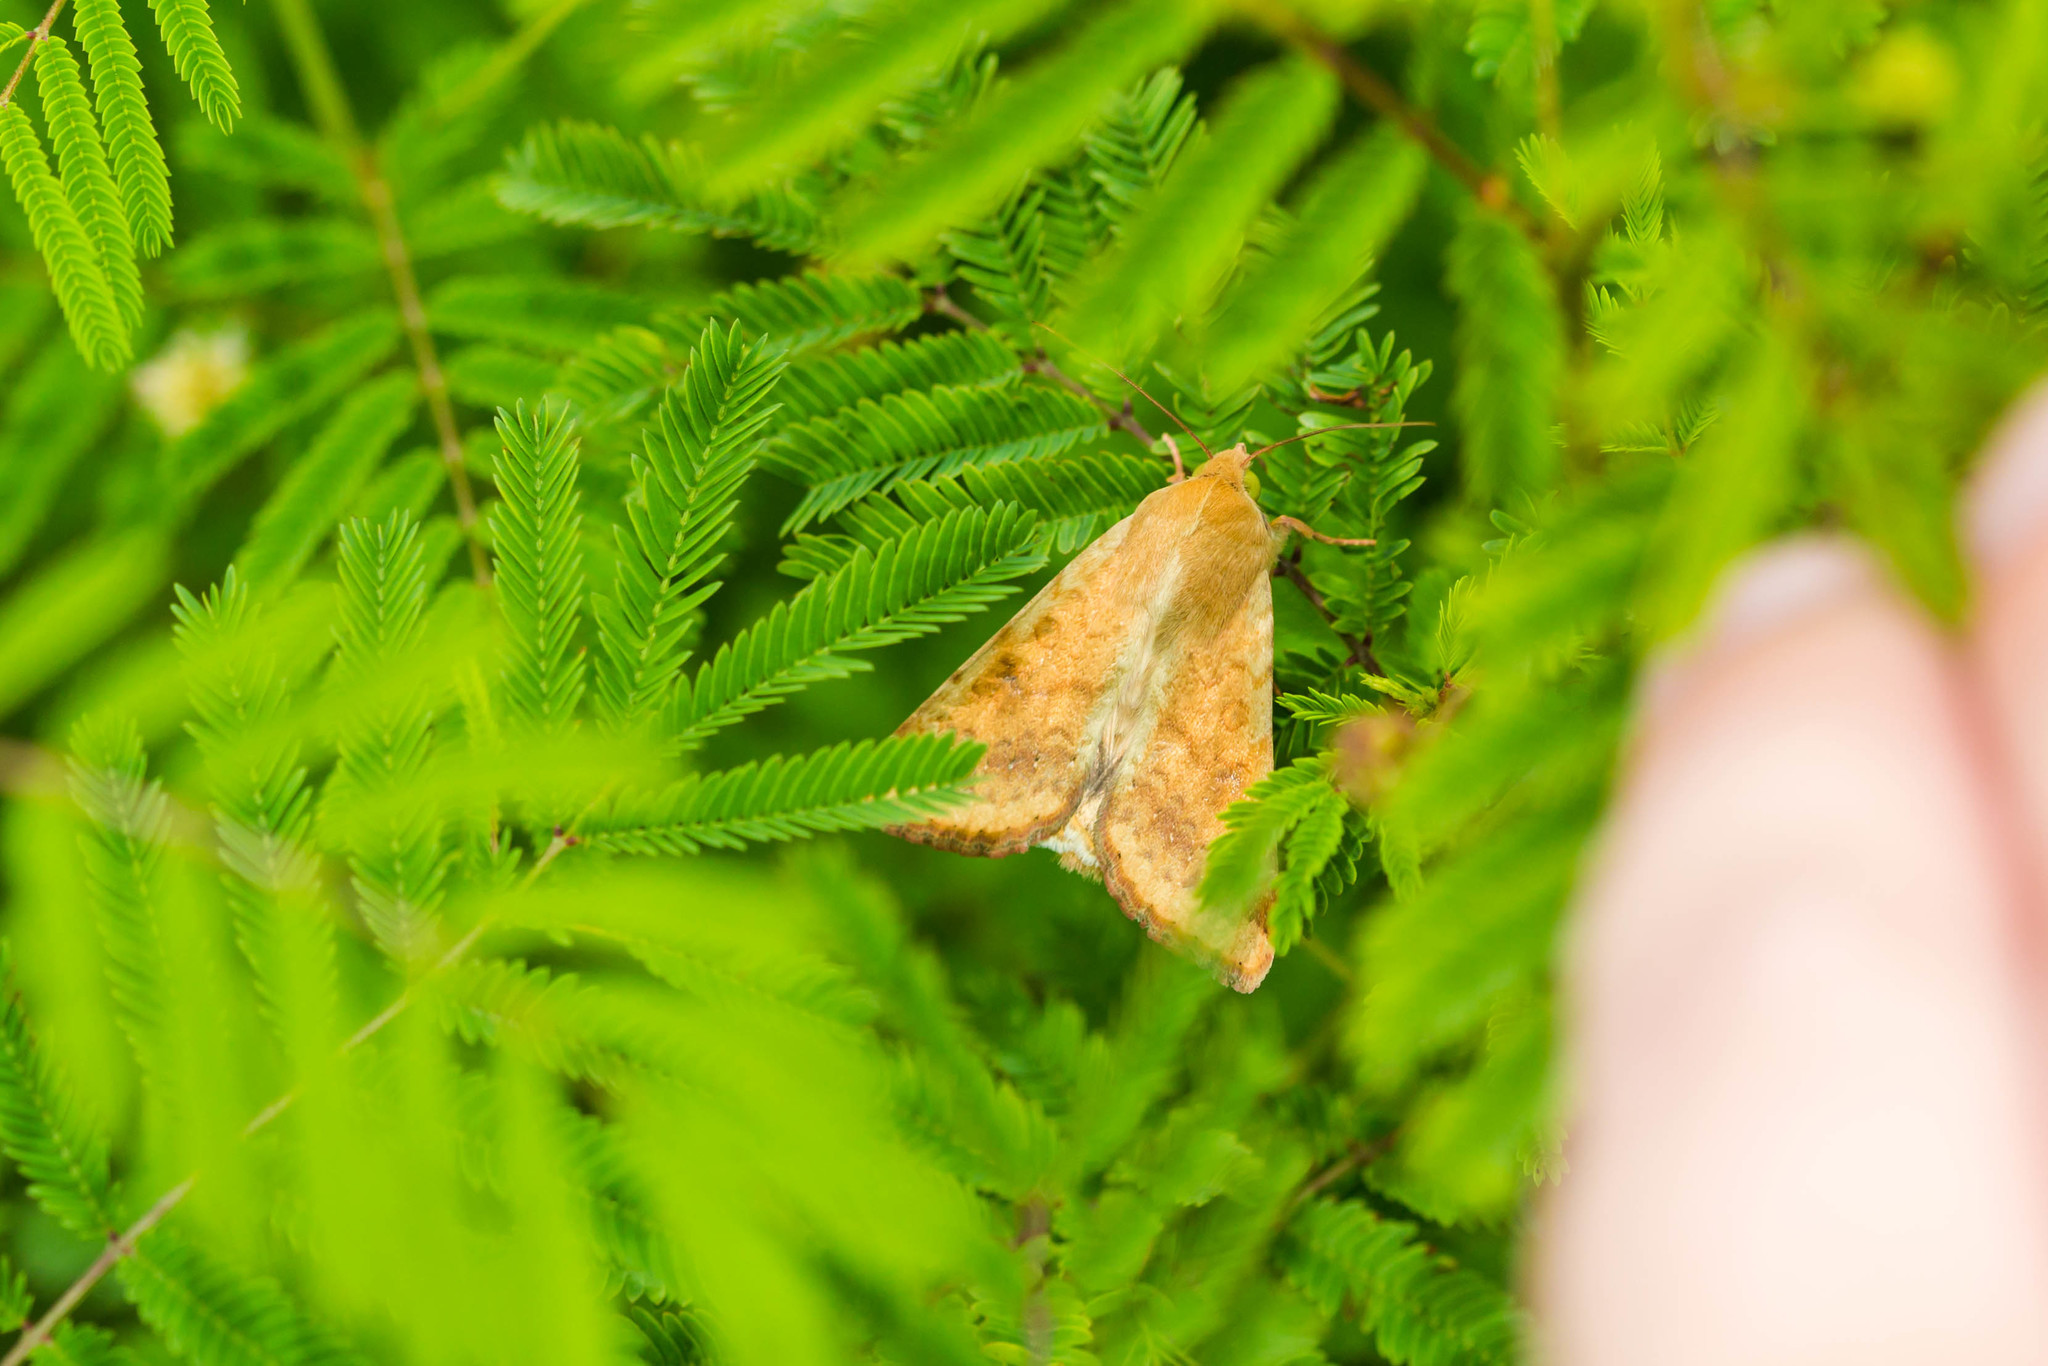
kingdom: Animalia
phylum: Arthropoda
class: Insecta
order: Lepidoptera
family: Noctuidae
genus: Helicoverpa
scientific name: Helicoverpa zea
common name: Bollworm
